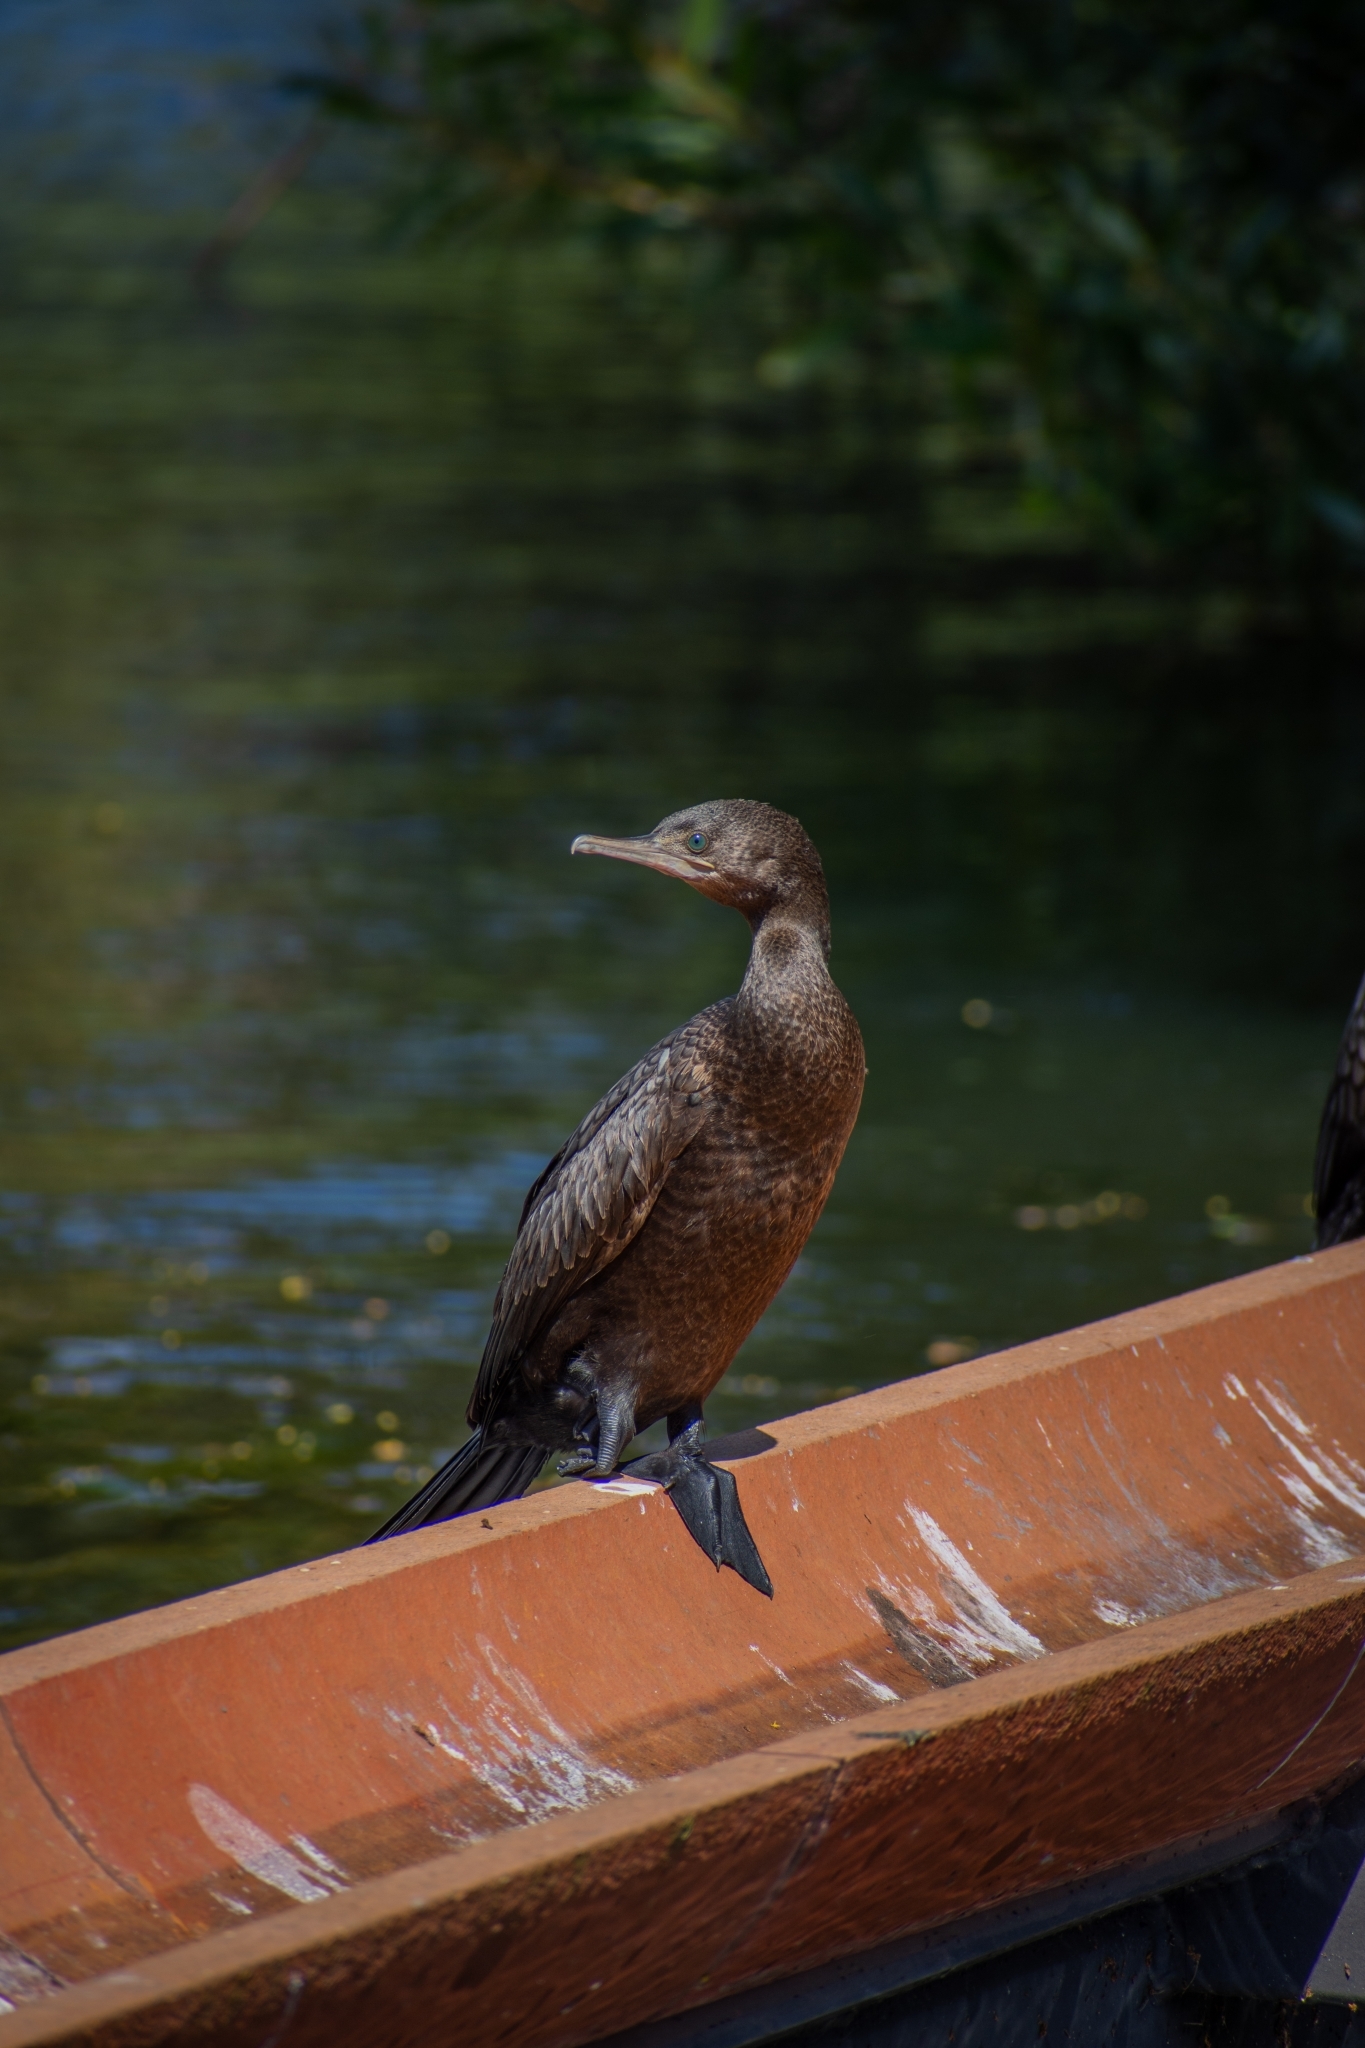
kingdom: Animalia
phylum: Chordata
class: Aves
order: Suliformes
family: Phalacrocoracidae
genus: Phalacrocorax
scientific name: Phalacrocorax sulcirostris
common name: Little black cormorant
